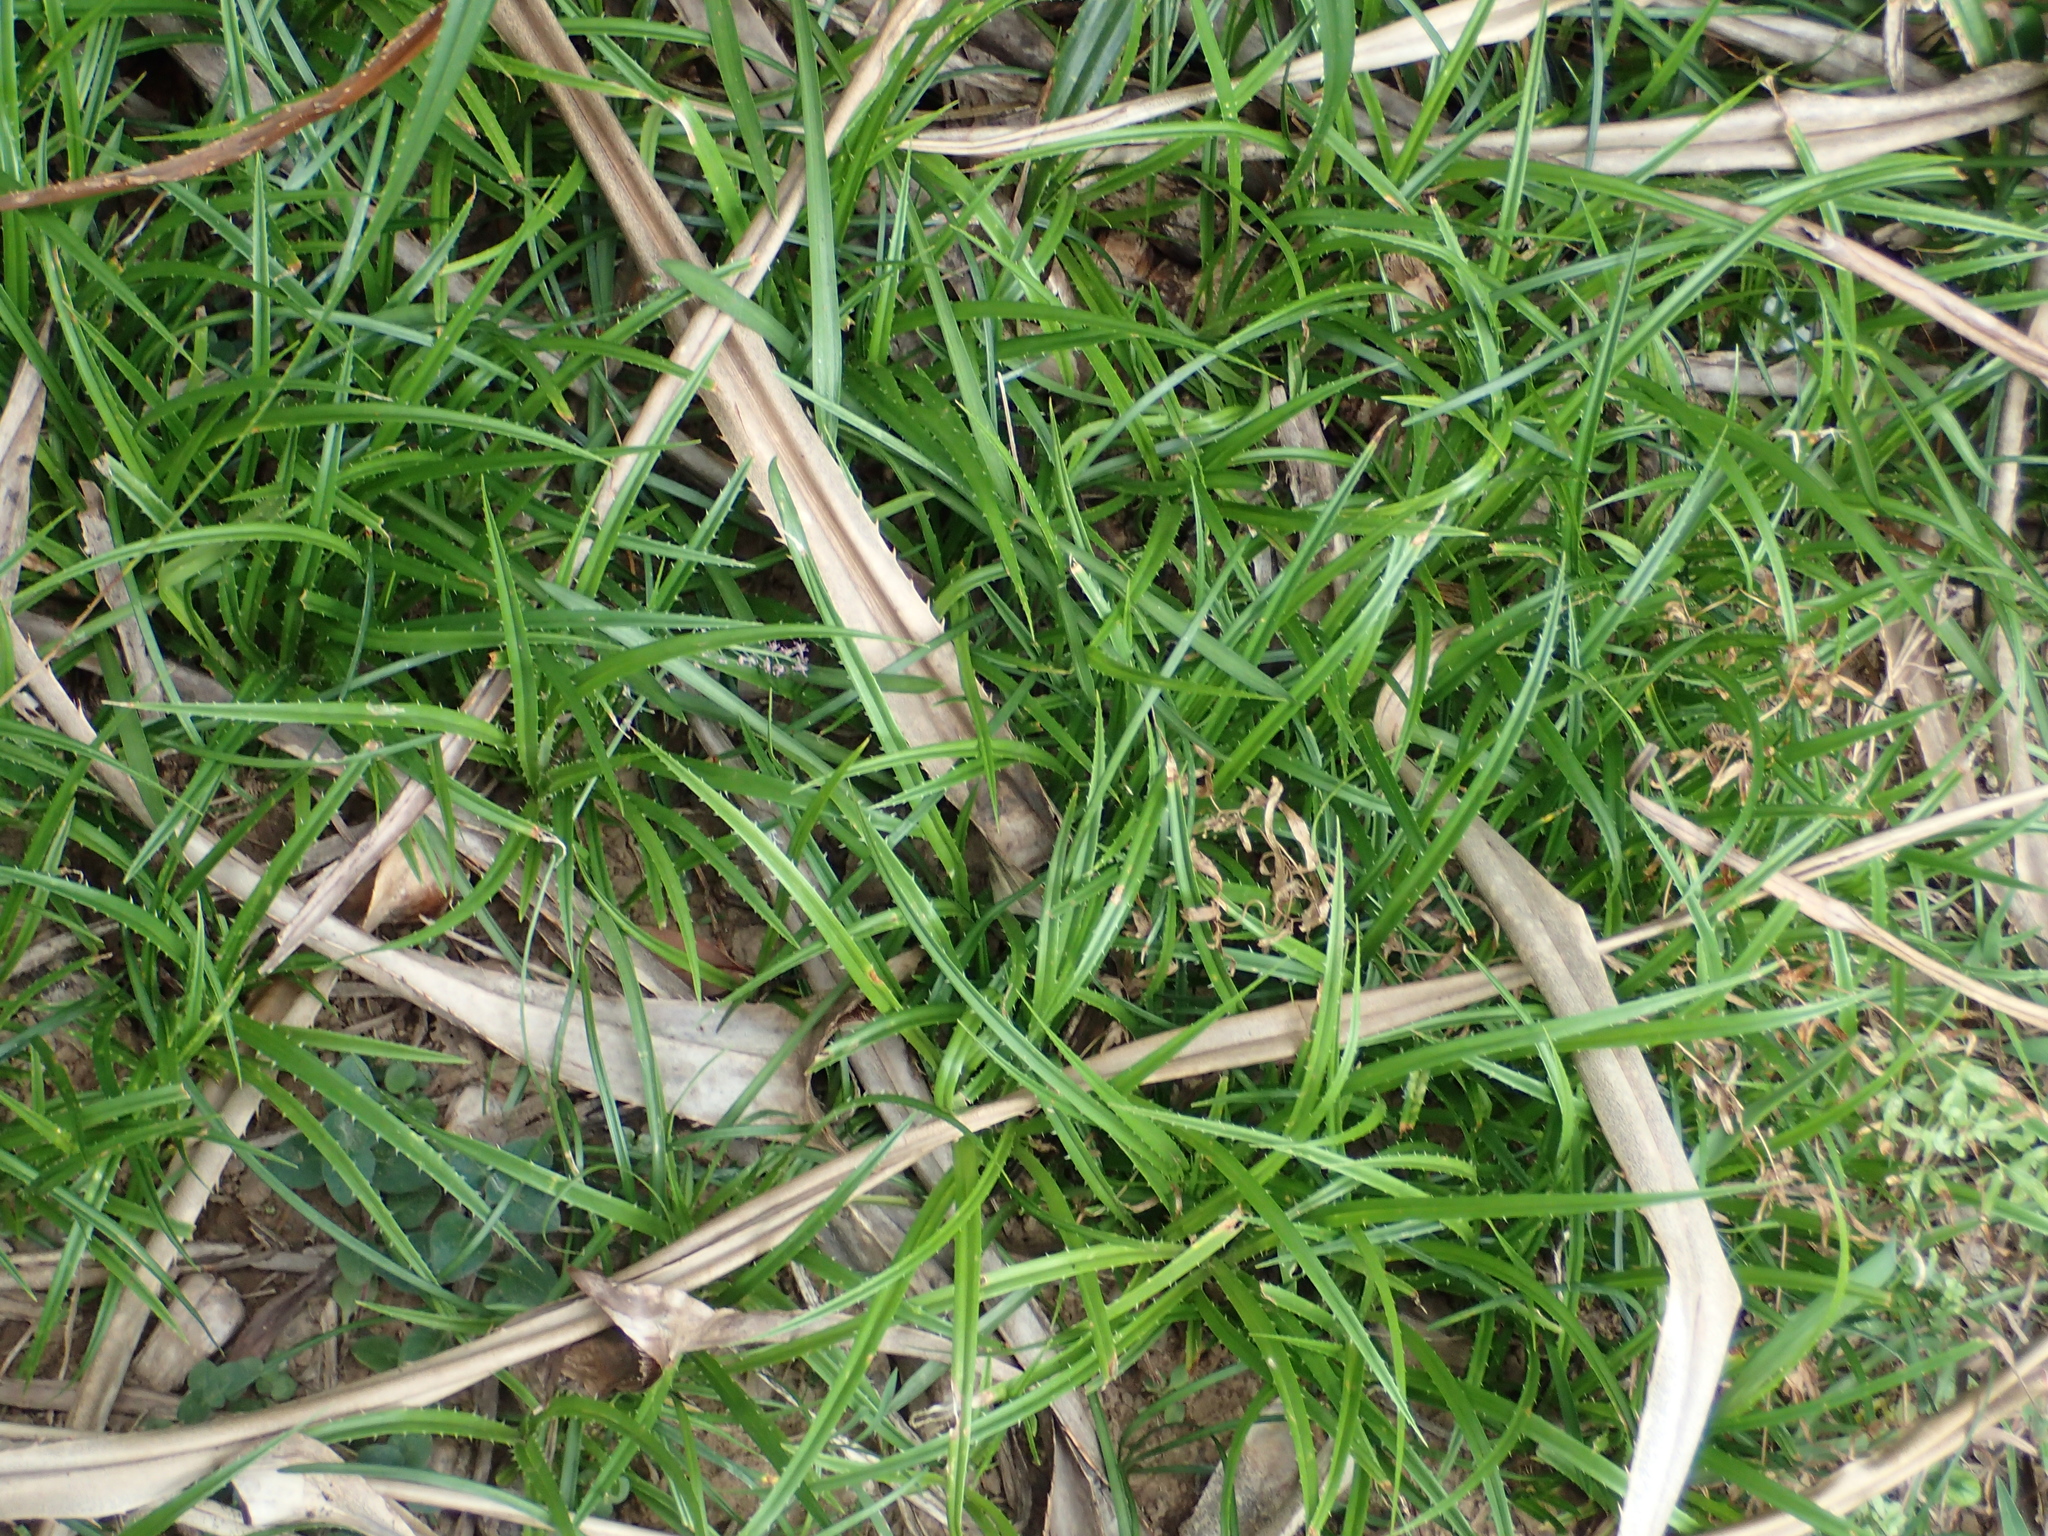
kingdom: Plantae
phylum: Tracheophyta
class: Liliopsida
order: Pandanales
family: Pandanaceae
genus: Pandanus
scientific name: Pandanus odorifer
